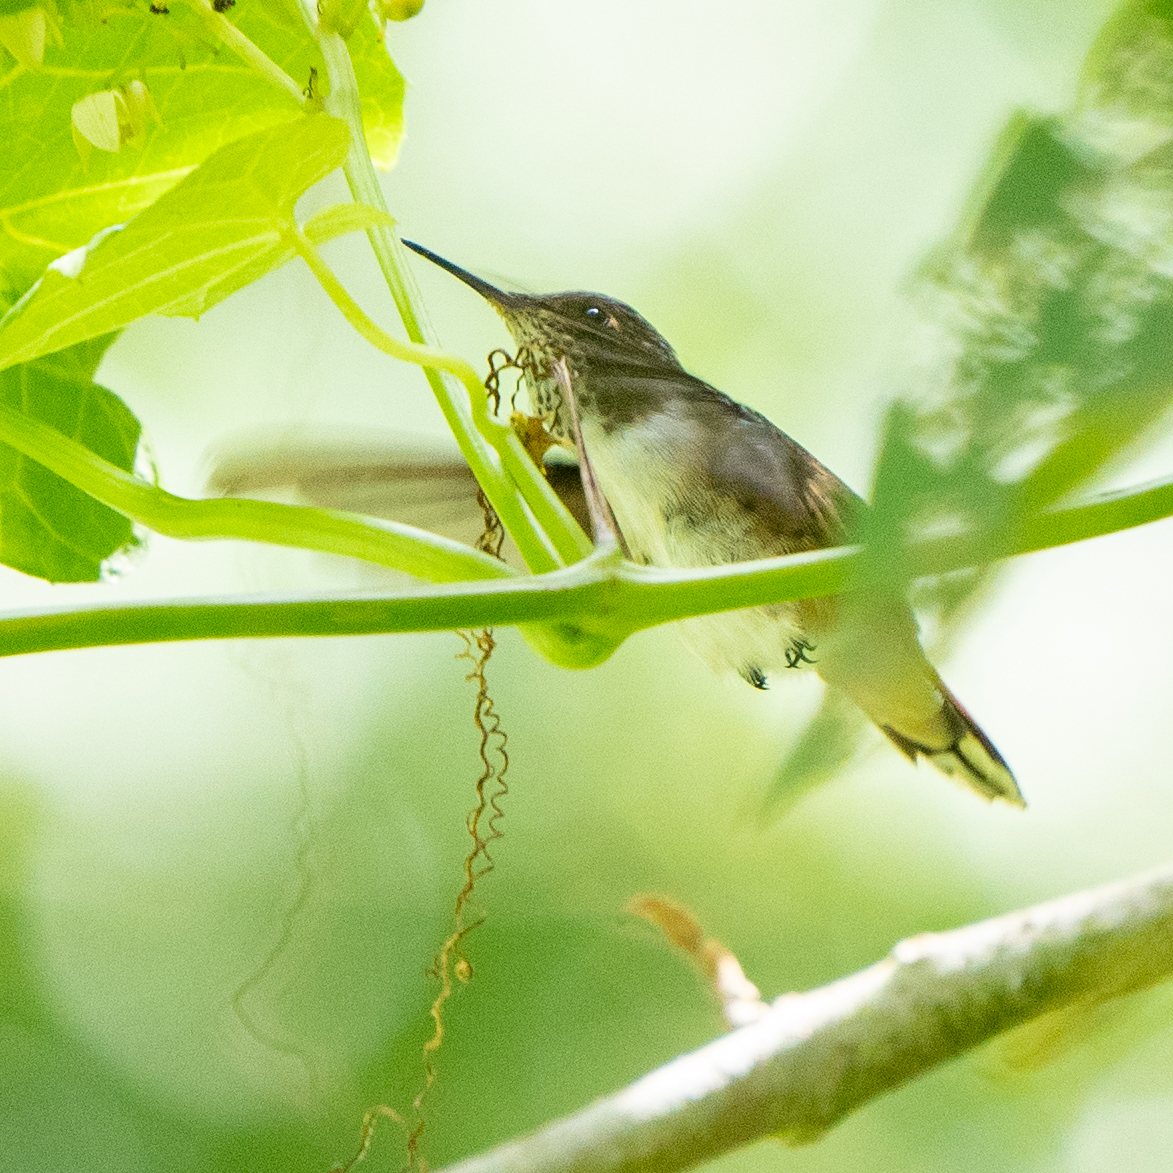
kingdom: Animalia
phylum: Chordata
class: Aves
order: Apodiformes
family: Trochilidae
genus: Selasphorus
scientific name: Selasphorus scintilla
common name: Scintillant hummingbird
